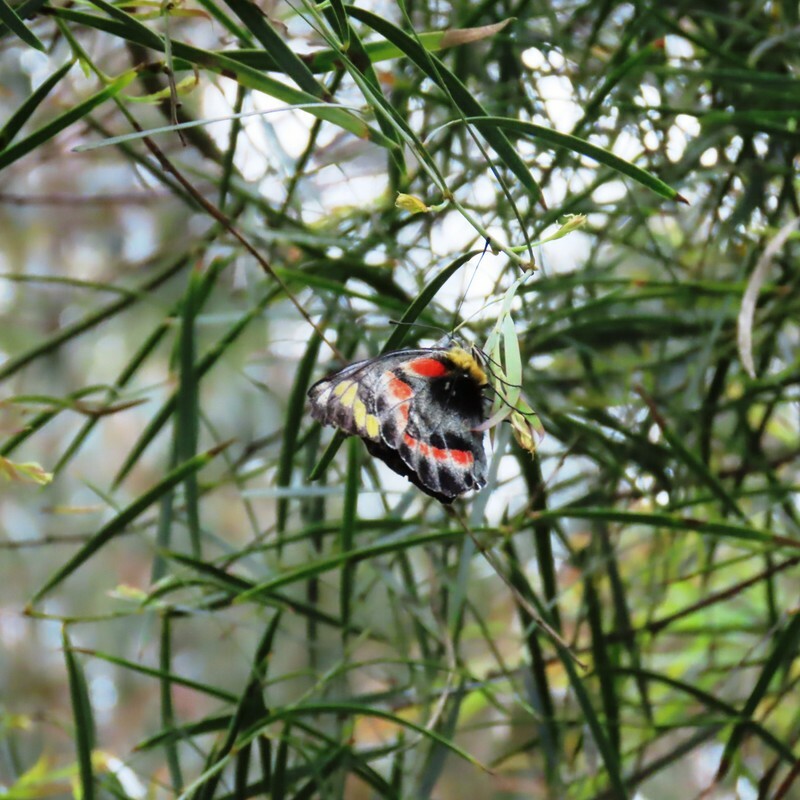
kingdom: Animalia
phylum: Arthropoda
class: Insecta
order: Lepidoptera
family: Pieridae
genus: Delias
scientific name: Delias harpalyce
